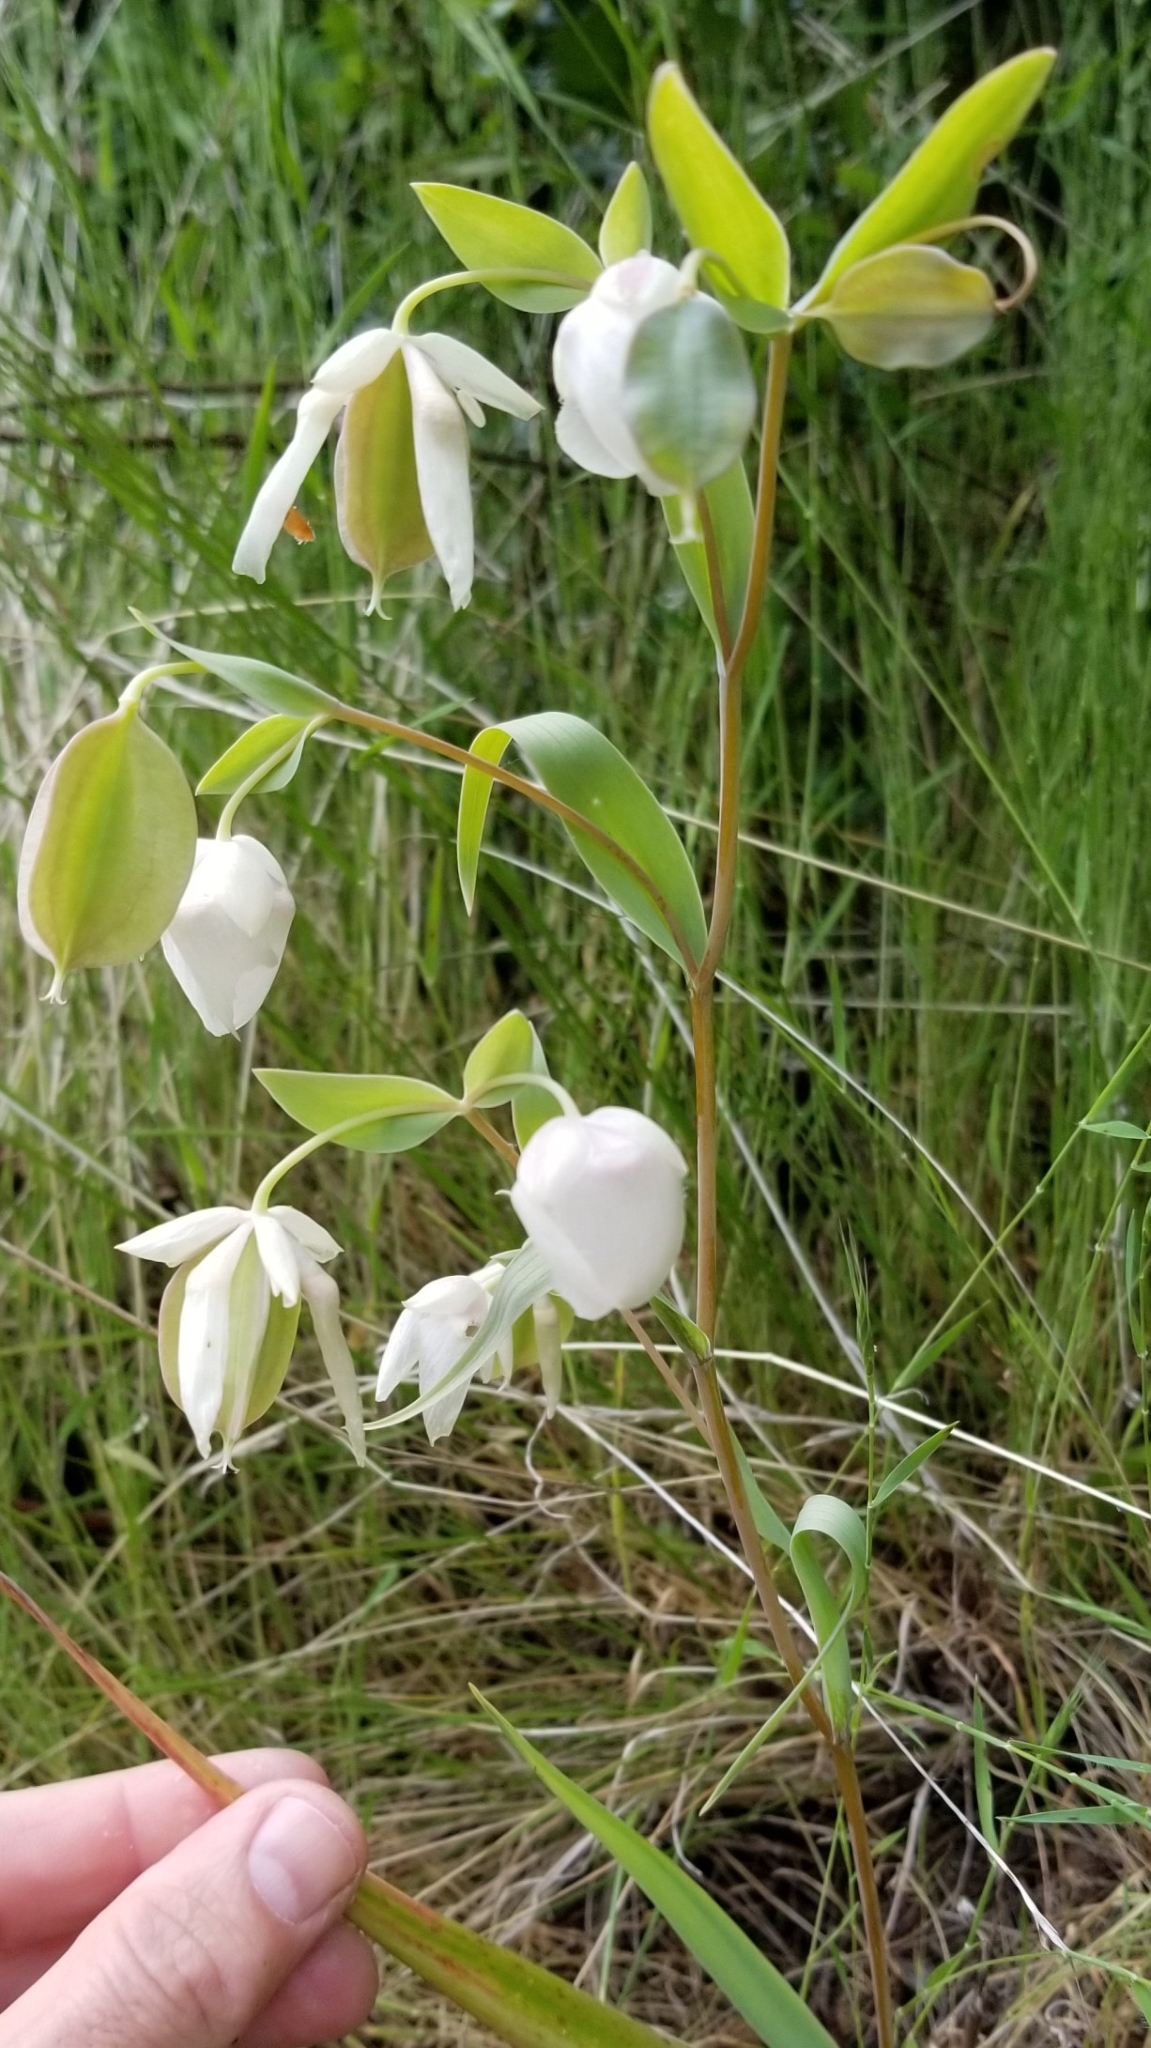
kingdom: Plantae
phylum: Tracheophyta
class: Liliopsida
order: Liliales
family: Liliaceae
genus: Calochortus
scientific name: Calochortus albus
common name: Fairy-lantern
